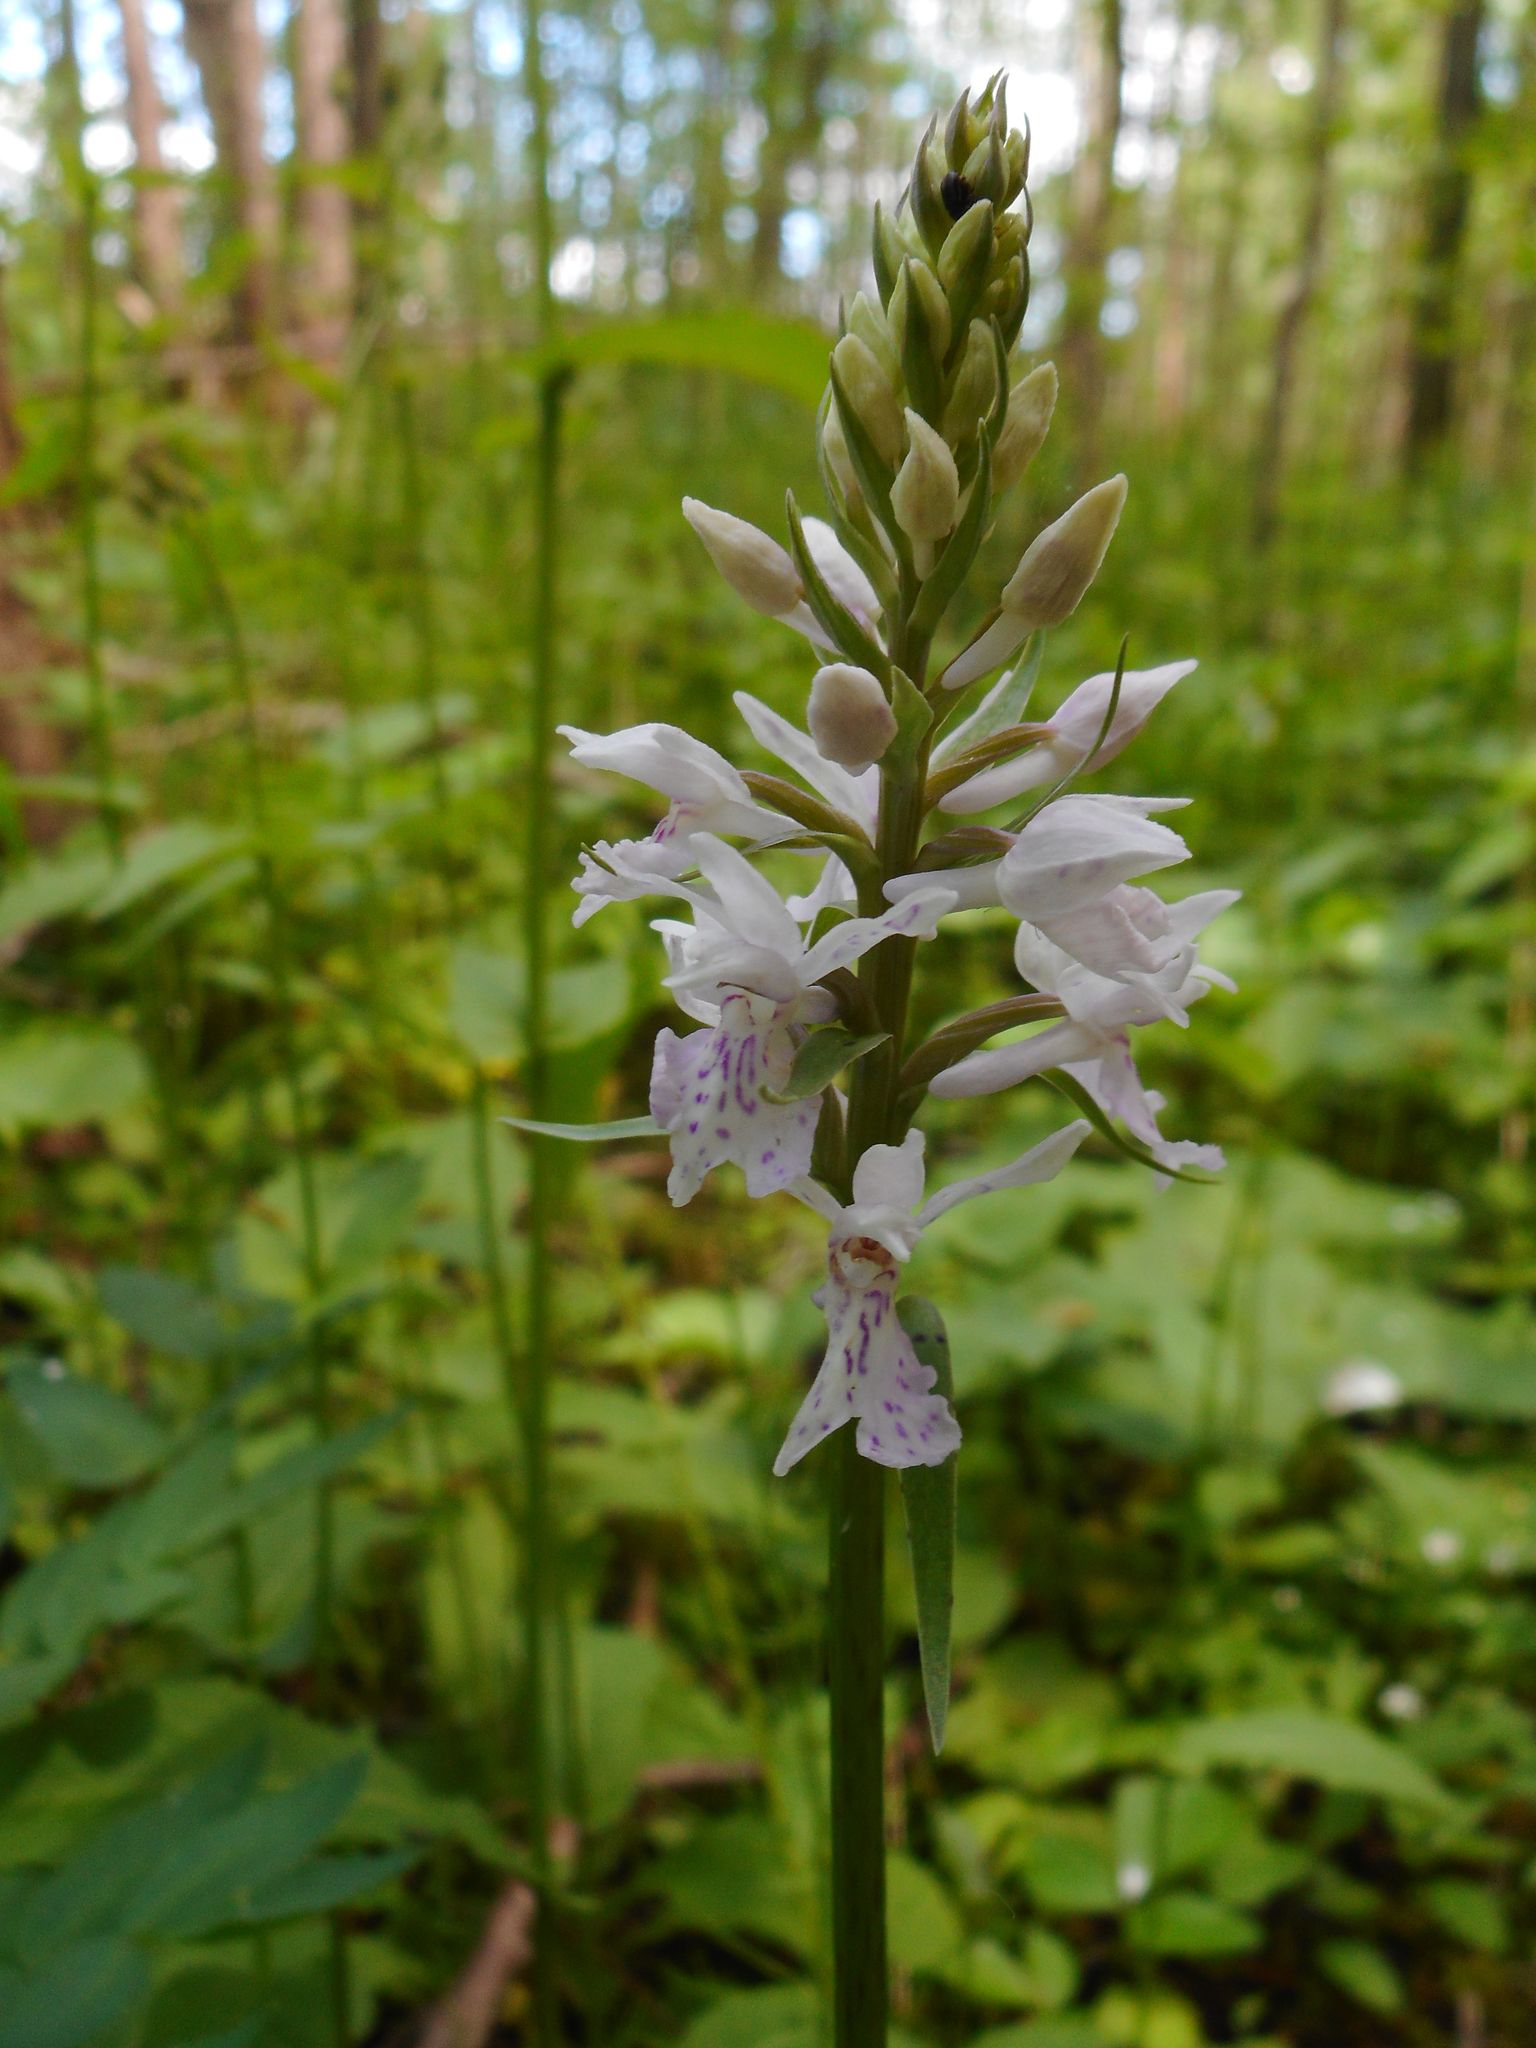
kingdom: Plantae
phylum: Tracheophyta
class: Liliopsida
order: Asparagales
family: Orchidaceae
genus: Dactylorhiza
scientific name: Dactylorhiza maculata
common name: Heath spotted-orchid
